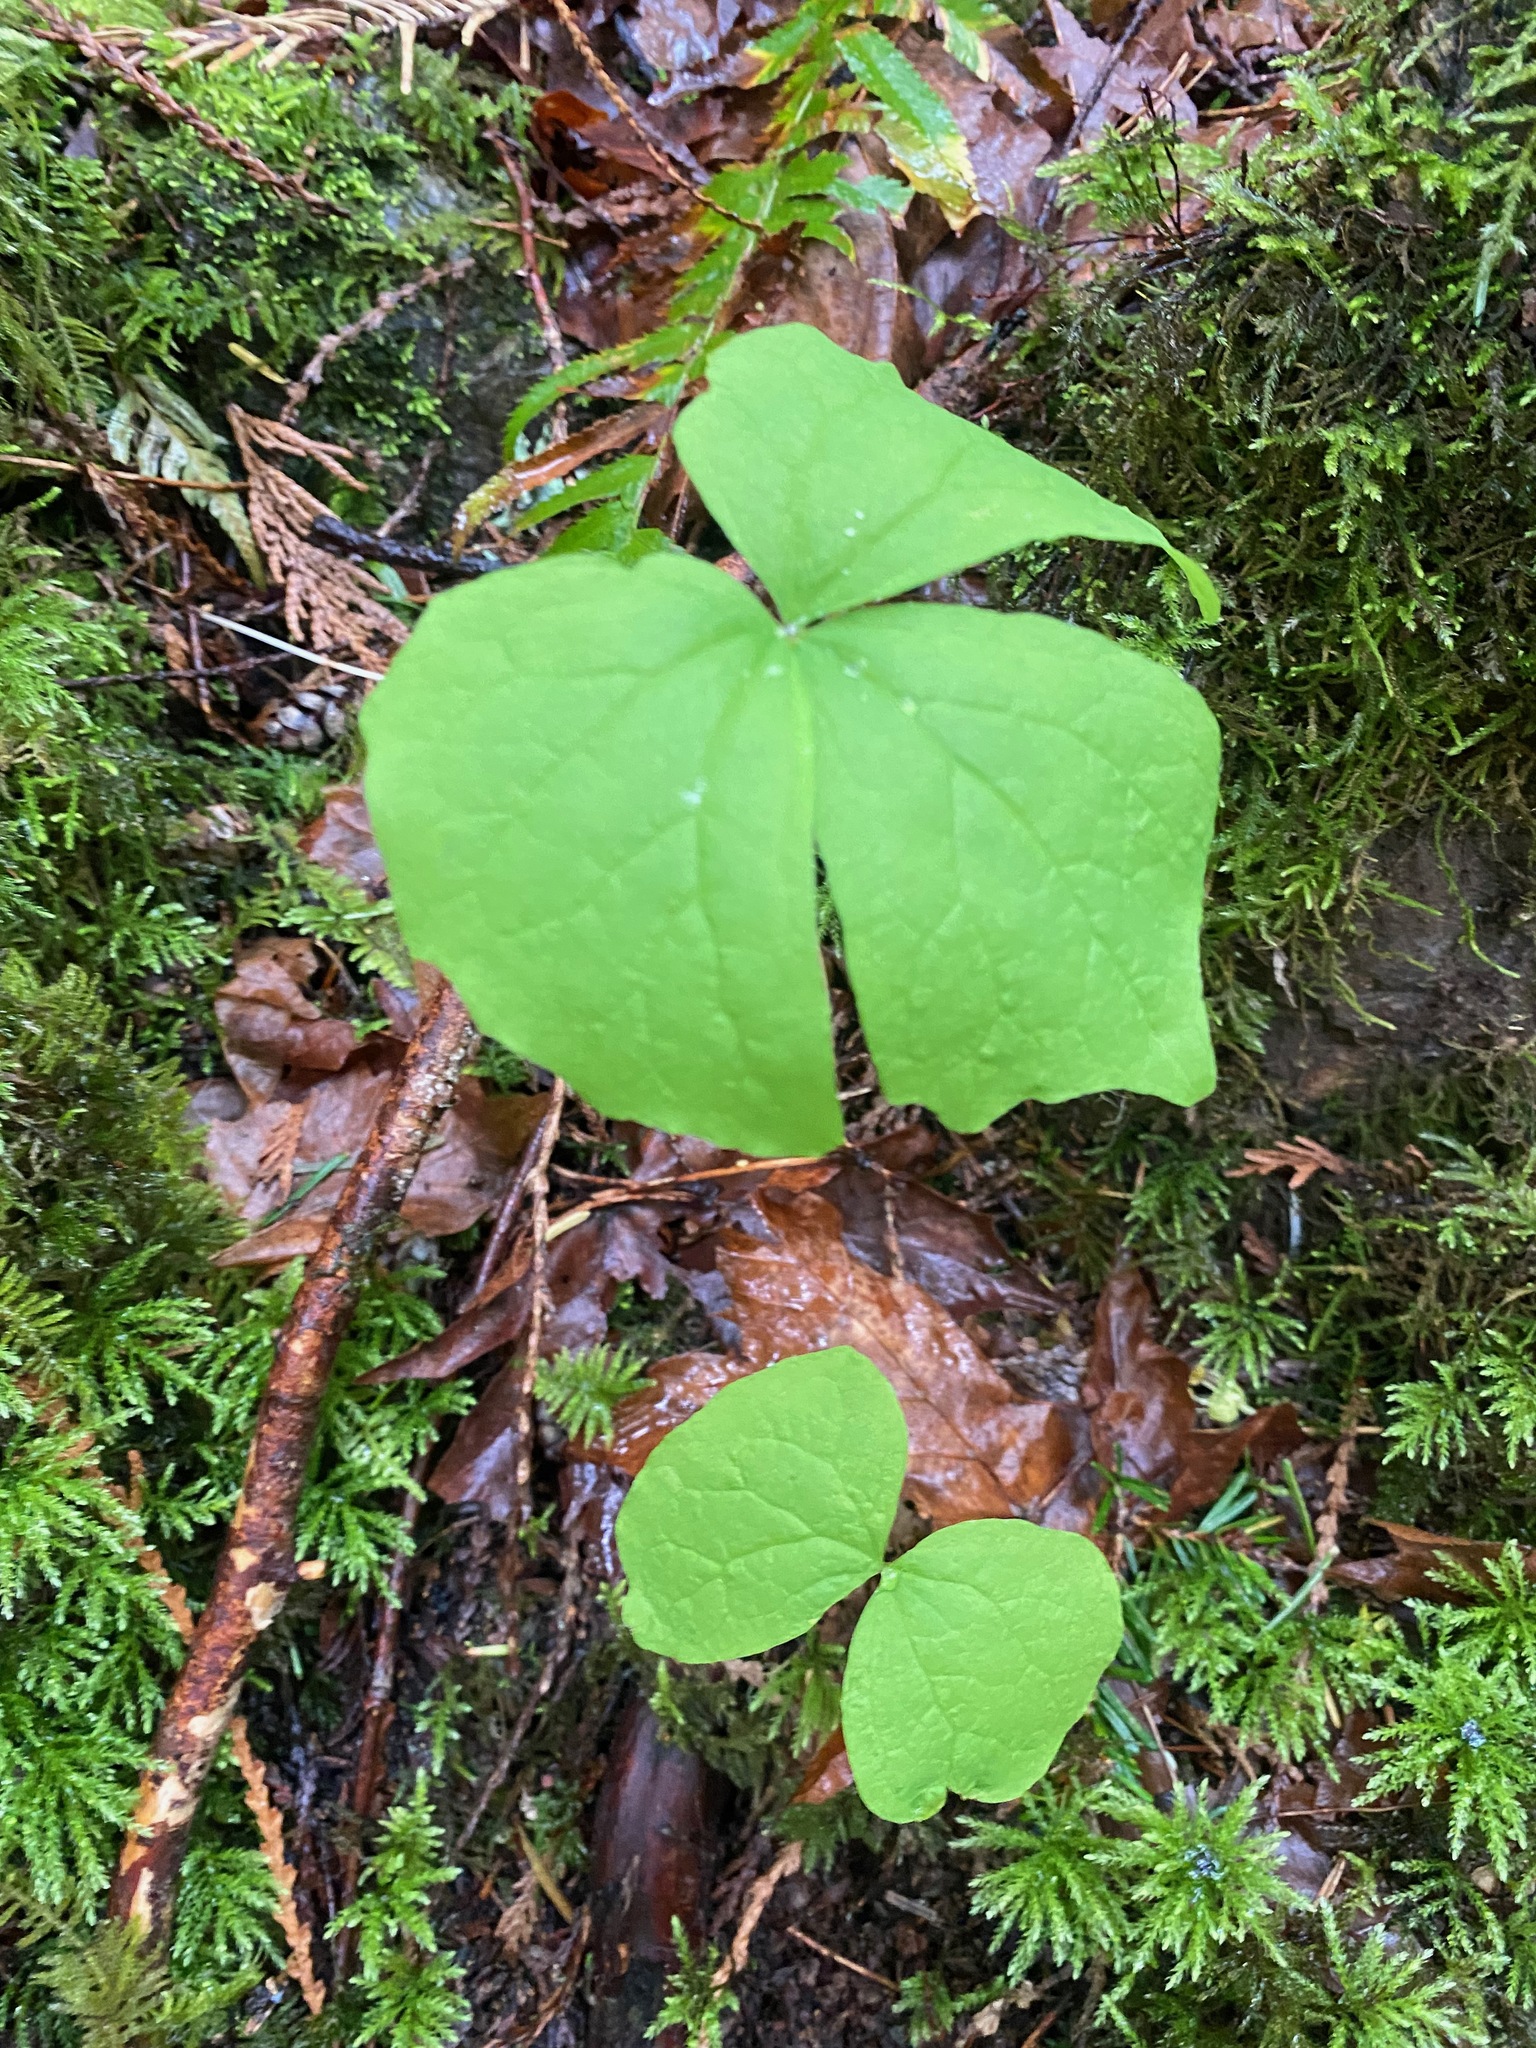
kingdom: Plantae
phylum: Tracheophyta
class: Magnoliopsida
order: Ranunculales
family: Berberidaceae
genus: Achlys
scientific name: Achlys triphylla
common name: Vanilla-leaf
